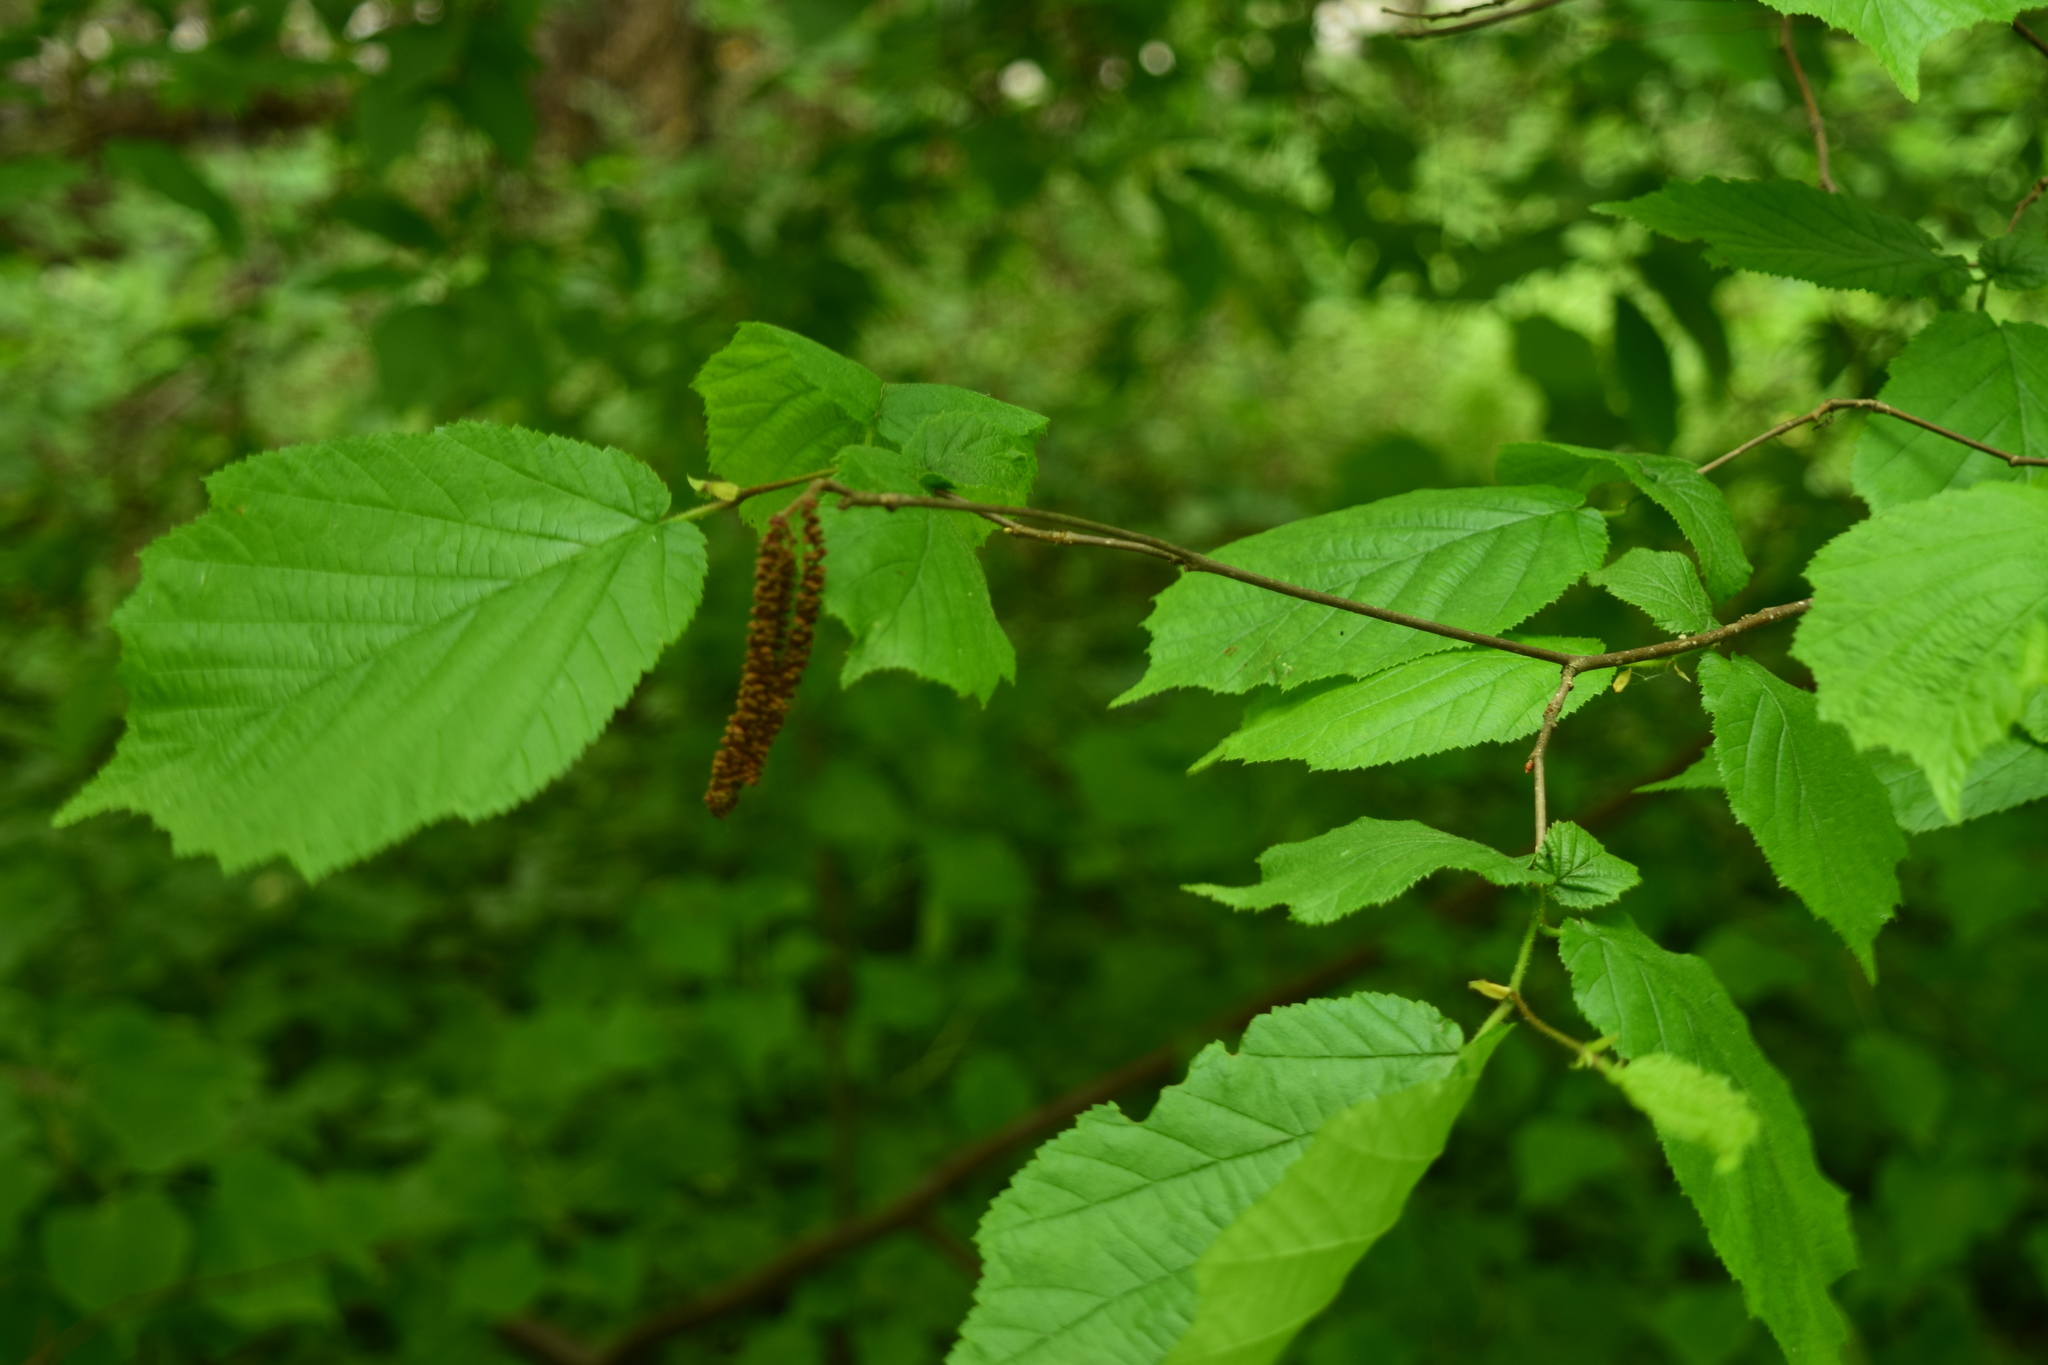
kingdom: Plantae
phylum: Tracheophyta
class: Magnoliopsida
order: Fagales
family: Betulaceae
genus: Corylus
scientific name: Corylus avellana
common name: European hazel
